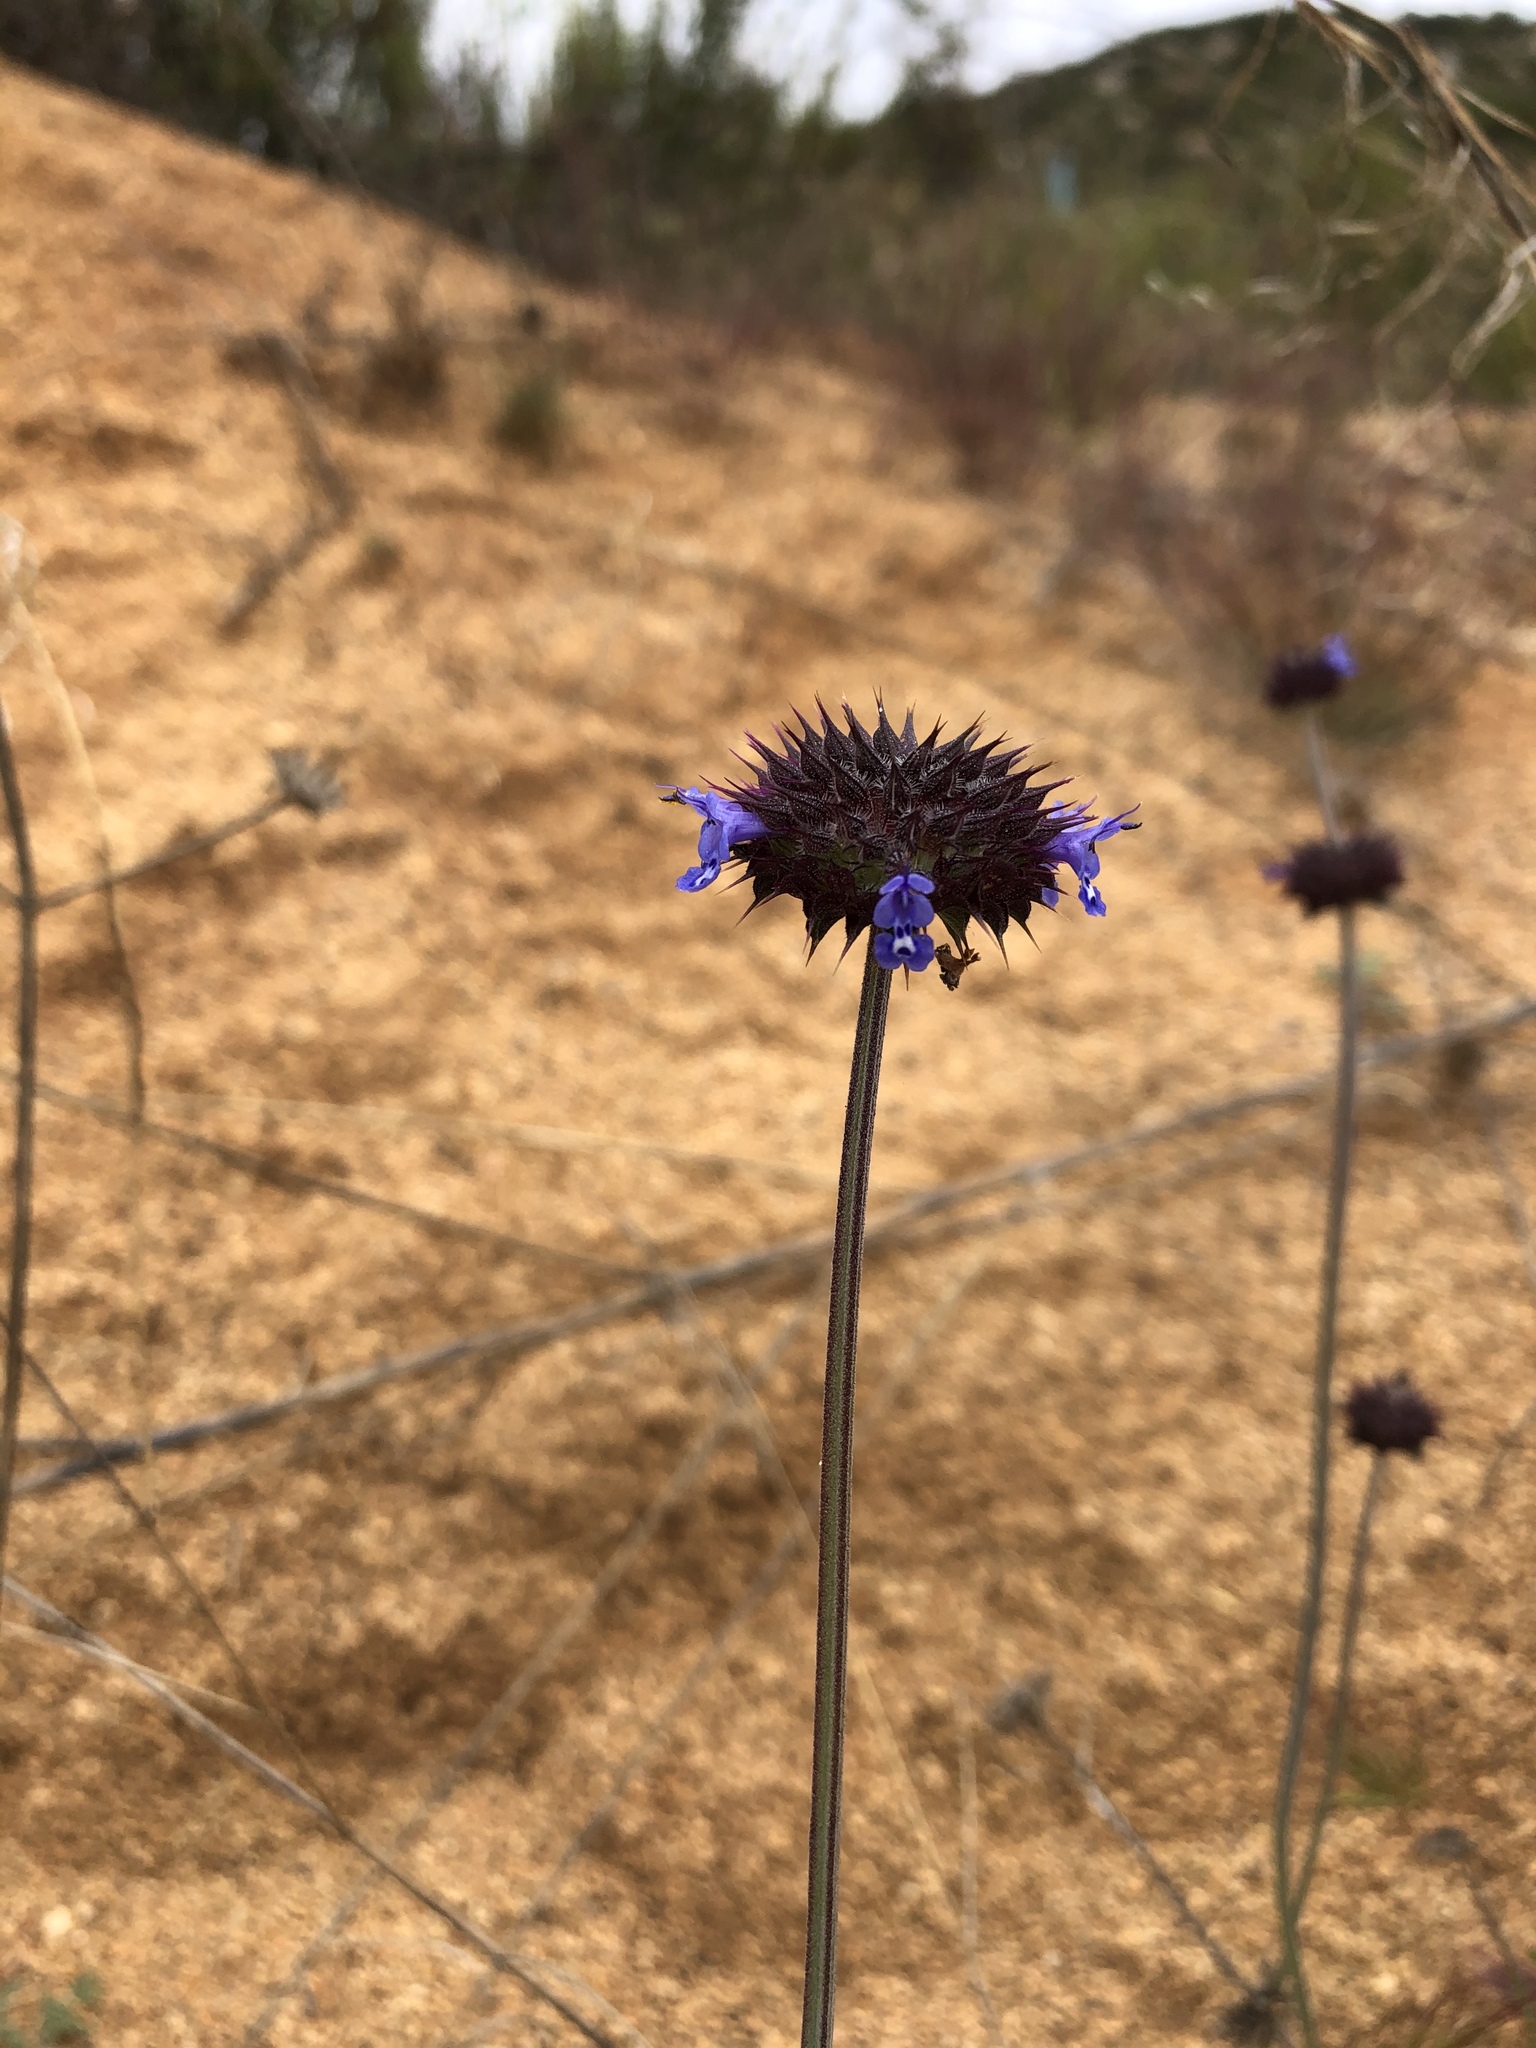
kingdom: Plantae
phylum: Tracheophyta
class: Magnoliopsida
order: Lamiales
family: Lamiaceae
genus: Salvia
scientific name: Salvia columbariae
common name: Chia
